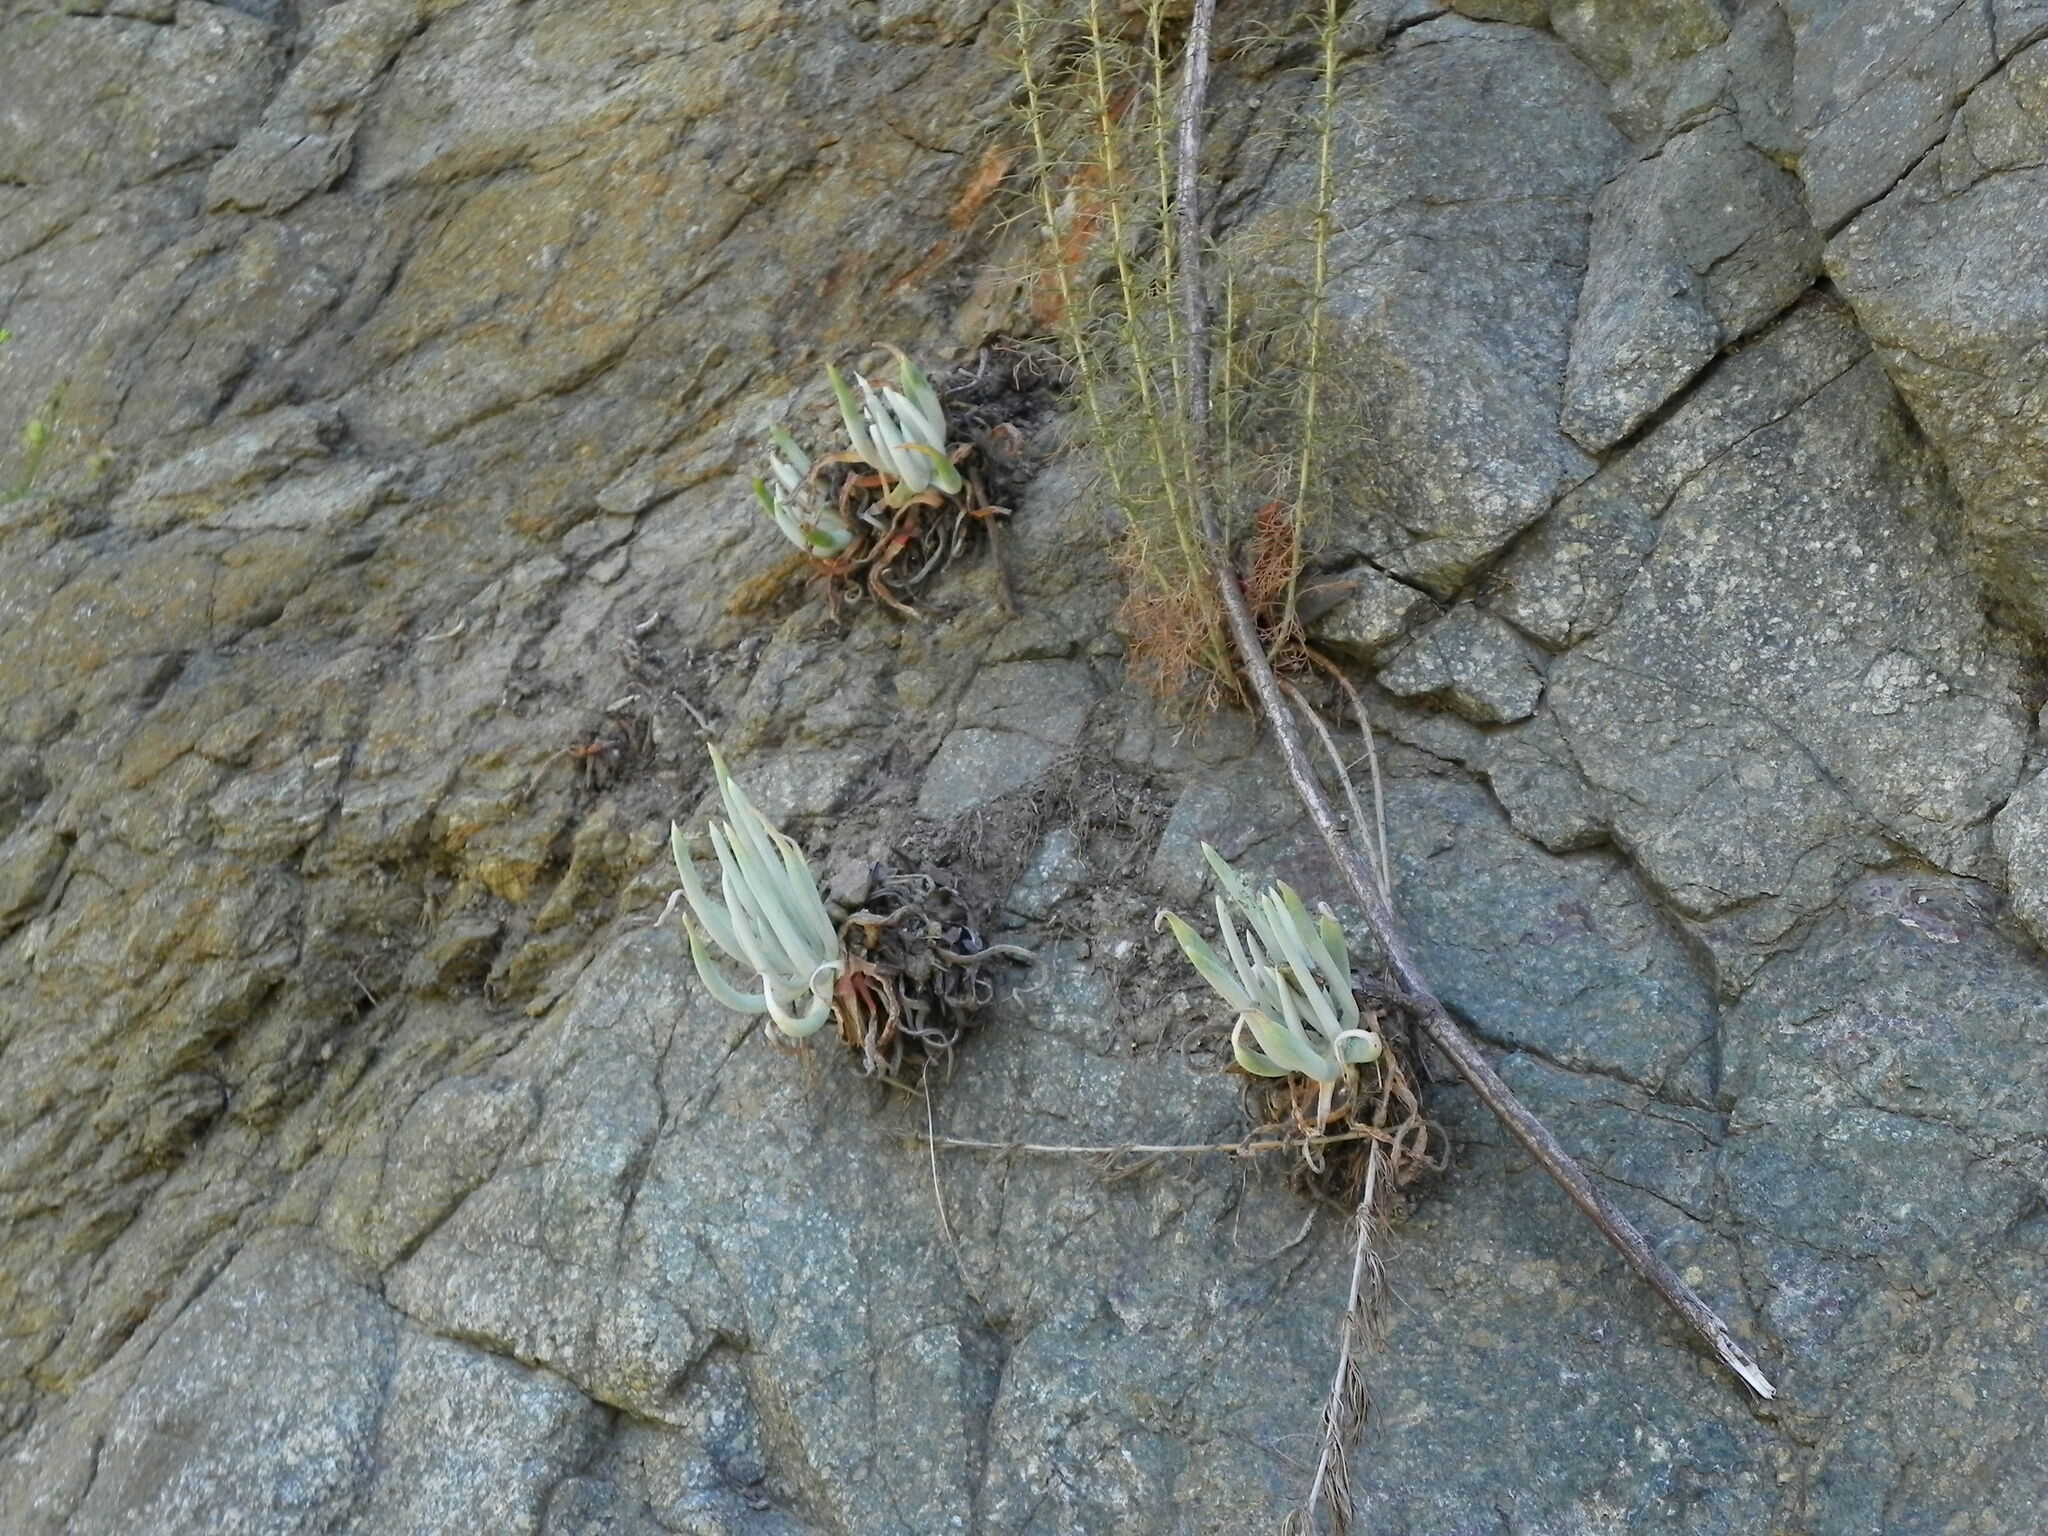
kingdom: Plantae
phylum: Tracheophyta
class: Magnoliopsida
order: Saxifragales
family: Crassulaceae
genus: Dudleya
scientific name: Dudleya densiflora
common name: San gabriel mountains dudleya
